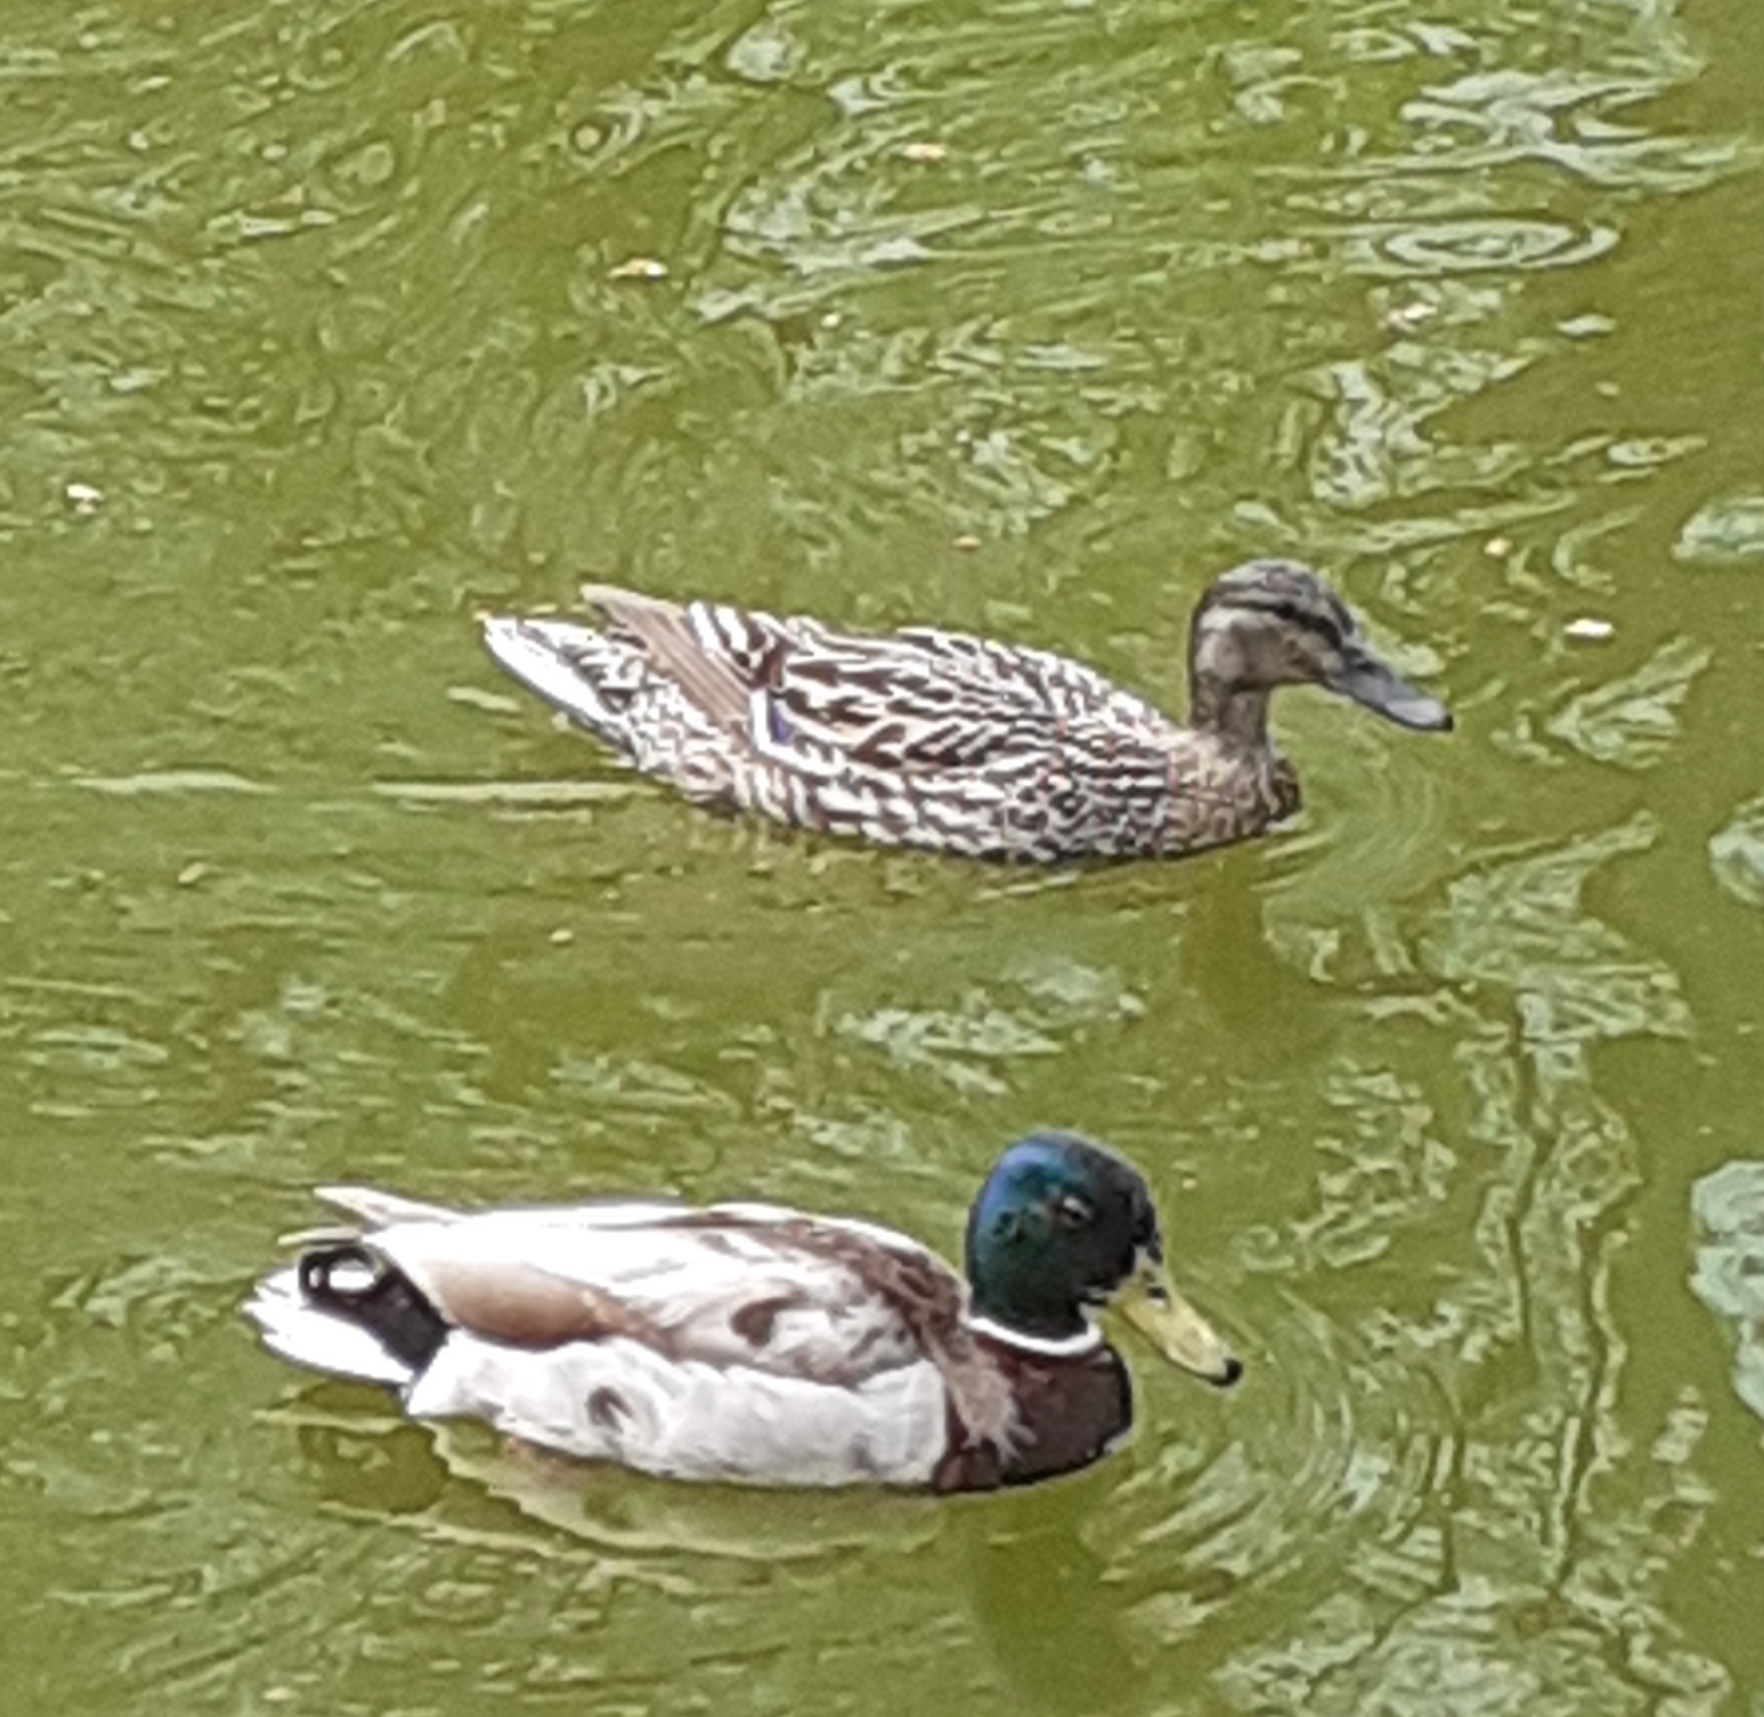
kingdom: Animalia
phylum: Chordata
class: Aves
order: Anseriformes
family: Anatidae
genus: Anas
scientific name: Anas platyrhynchos
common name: Mallard
